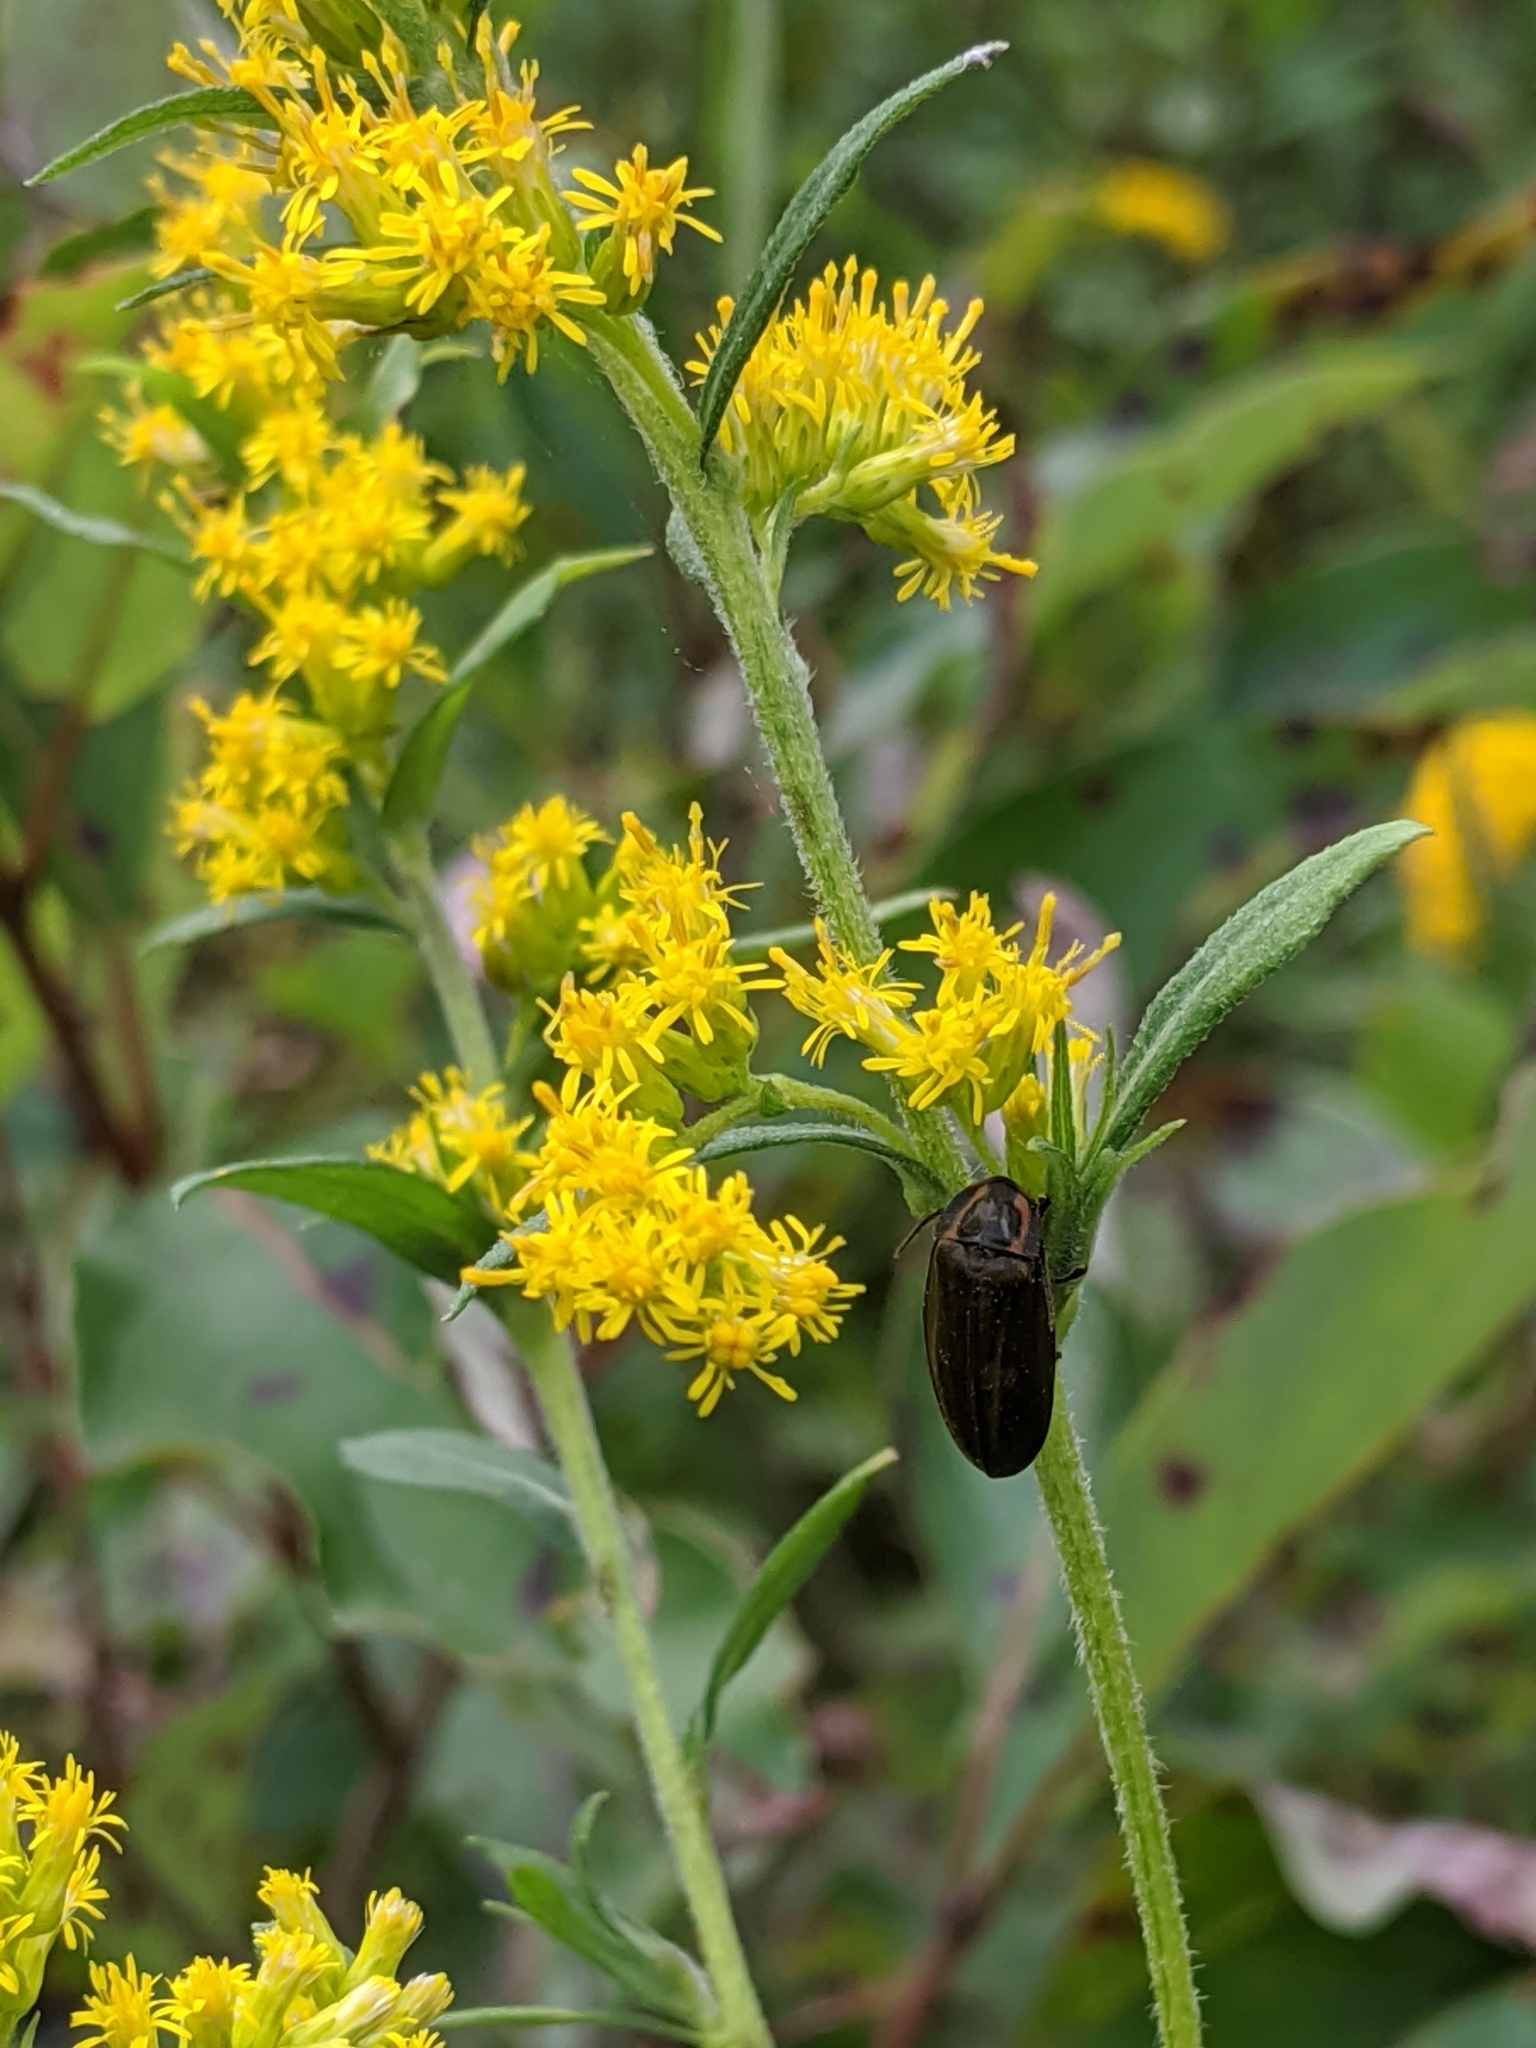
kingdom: Animalia
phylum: Arthropoda
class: Insecta
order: Coleoptera
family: Lampyridae
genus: Photinus
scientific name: Photinus corrusca
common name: Winter firefly
